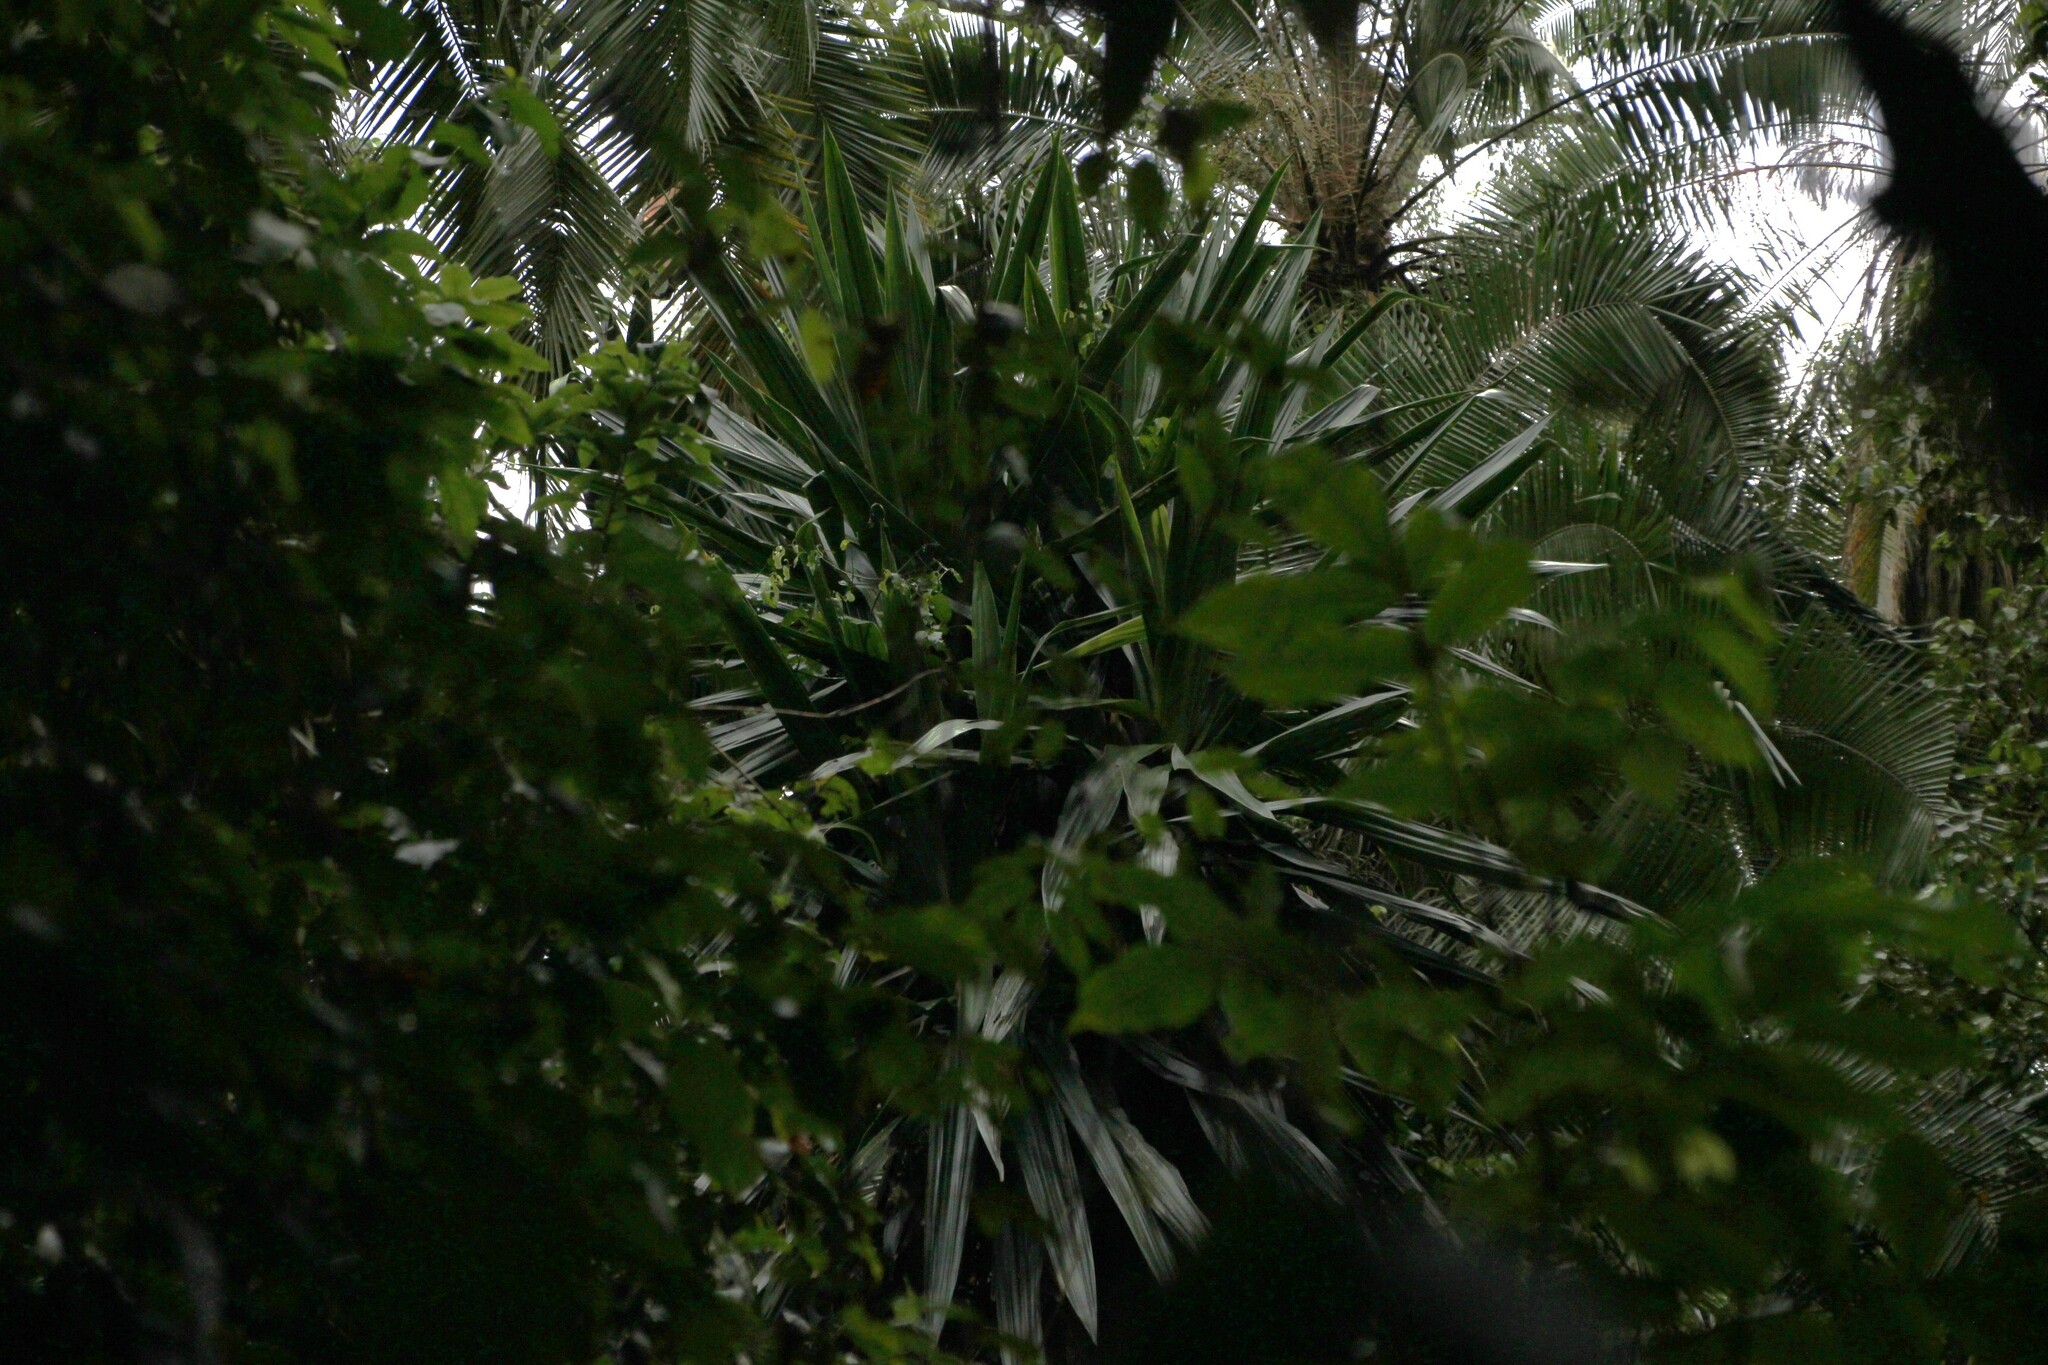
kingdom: Plantae
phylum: Tracheophyta
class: Liliopsida
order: Asparagales
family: Asparagaceae
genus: Dracaena
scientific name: Dracaena steudneri
